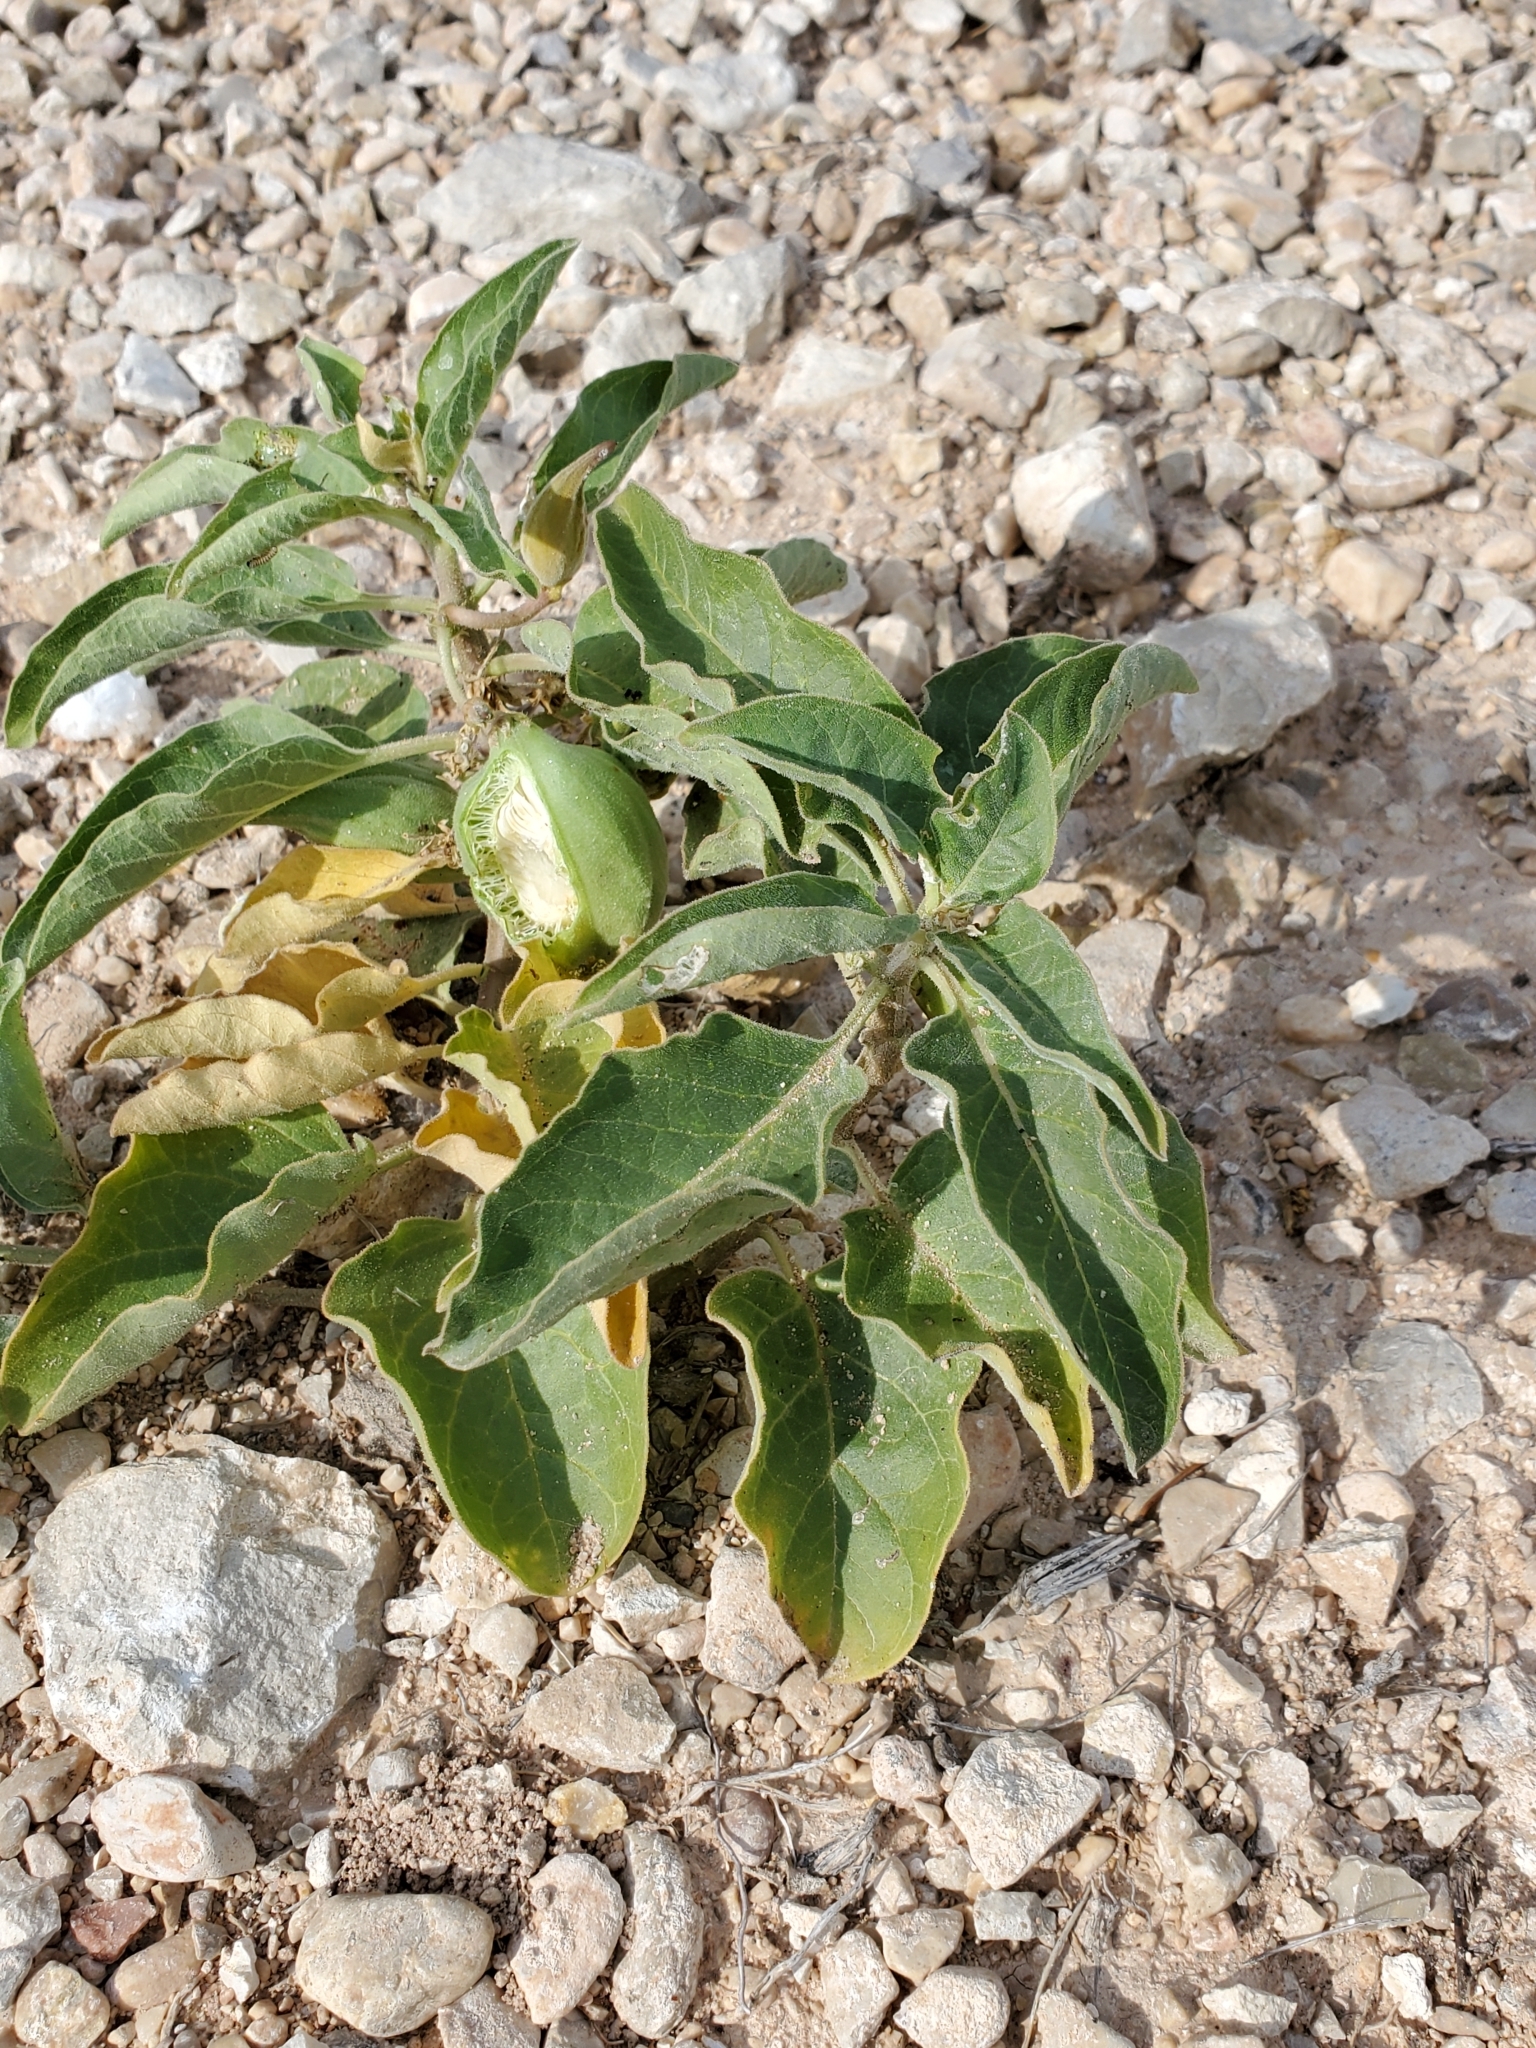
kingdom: Plantae
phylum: Tracheophyta
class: Magnoliopsida
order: Gentianales
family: Apocynaceae
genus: Asclepias
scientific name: Asclepias oenotheroides
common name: Zizotes milkweed
